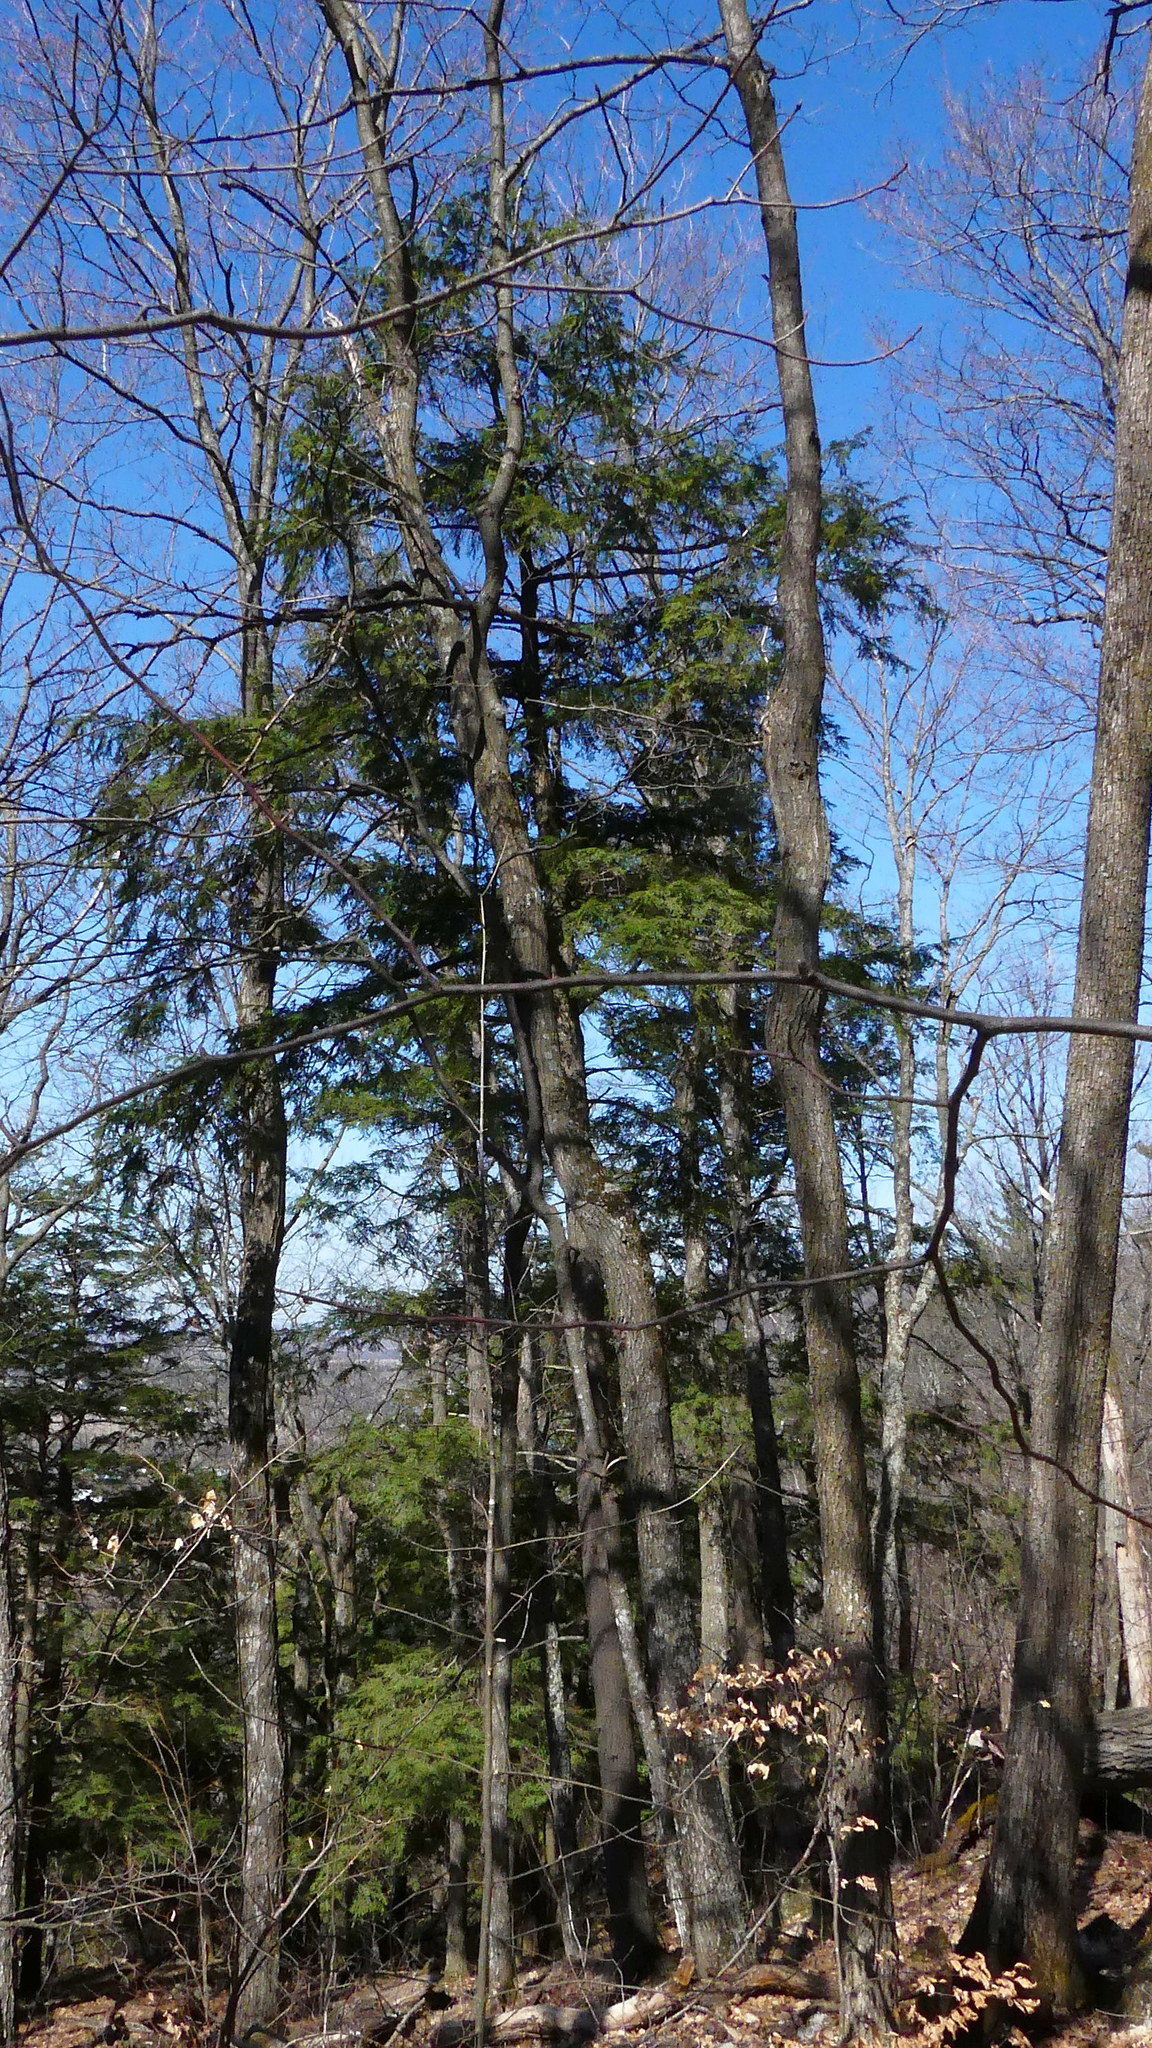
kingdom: Plantae
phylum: Tracheophyta
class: Pinopsida
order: Pinales
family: Pinaceae
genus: Tsuga
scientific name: Tsuga canadensis
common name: Eastern hemlock
